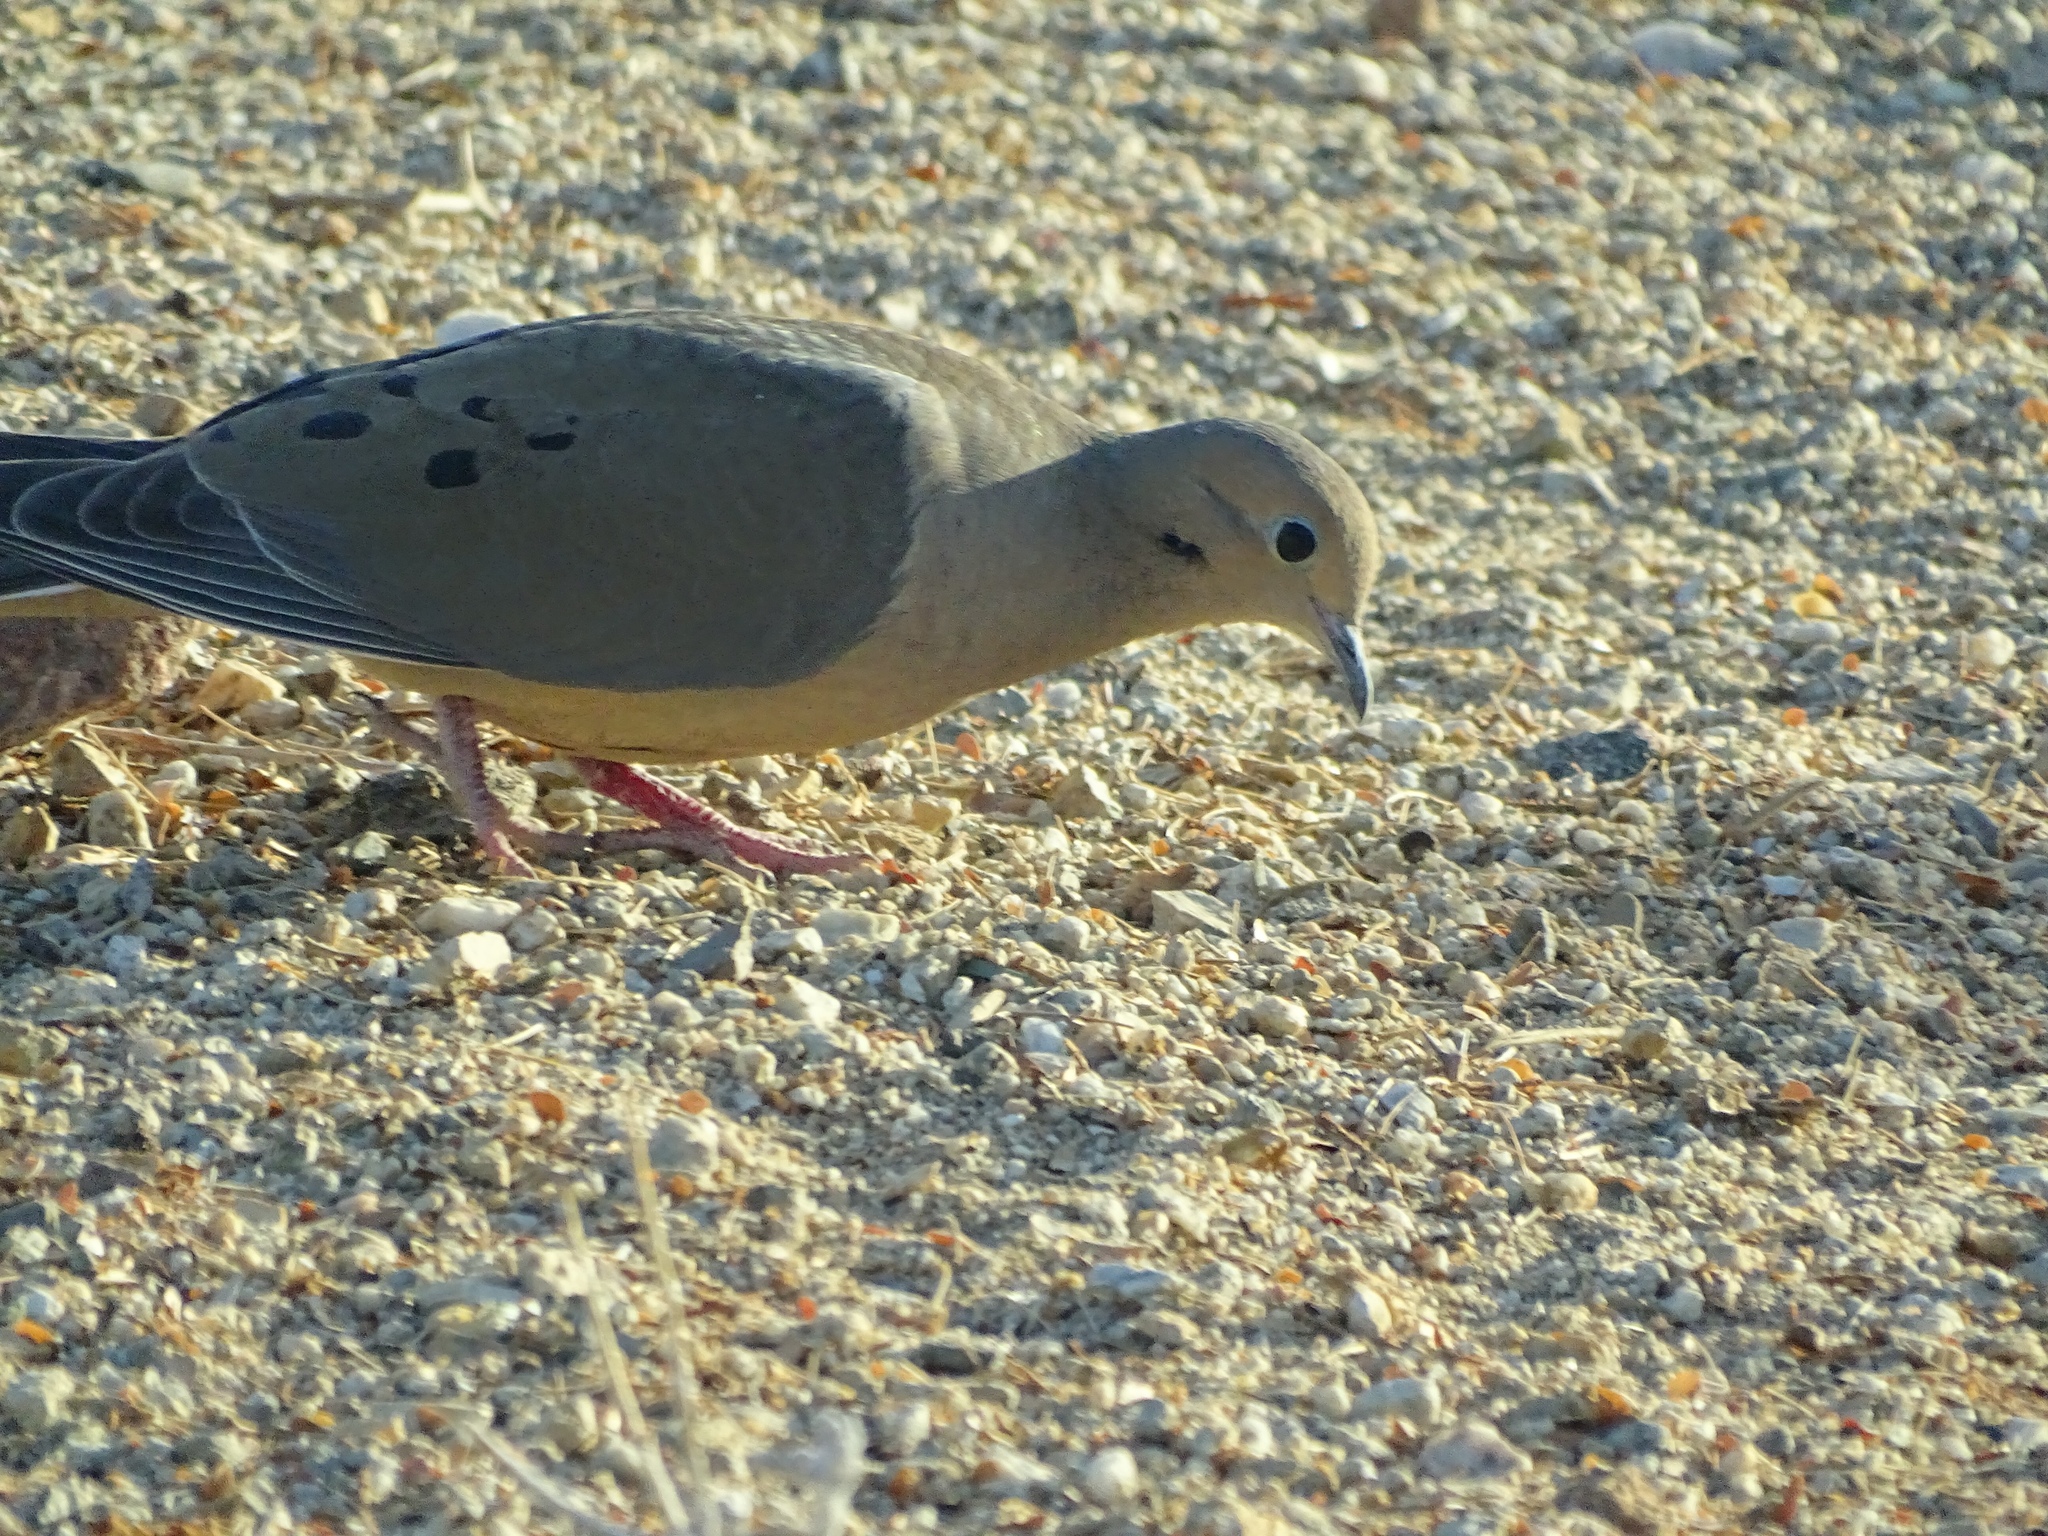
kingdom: Animalia
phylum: Chordata
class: Aves
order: Columbiformes
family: Columbidae
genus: Zenaida
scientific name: Zenaida macroura
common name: Mourning dove
